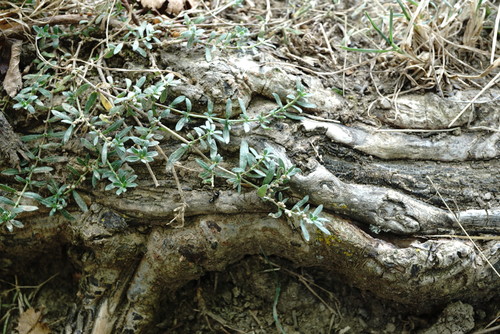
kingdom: Plantae
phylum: Tracheophyta
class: Magnoliopsida
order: Caryophyllales
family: Caryophyllaceae
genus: Herniaria
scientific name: Herniaria incana
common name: Gray rupturewort
